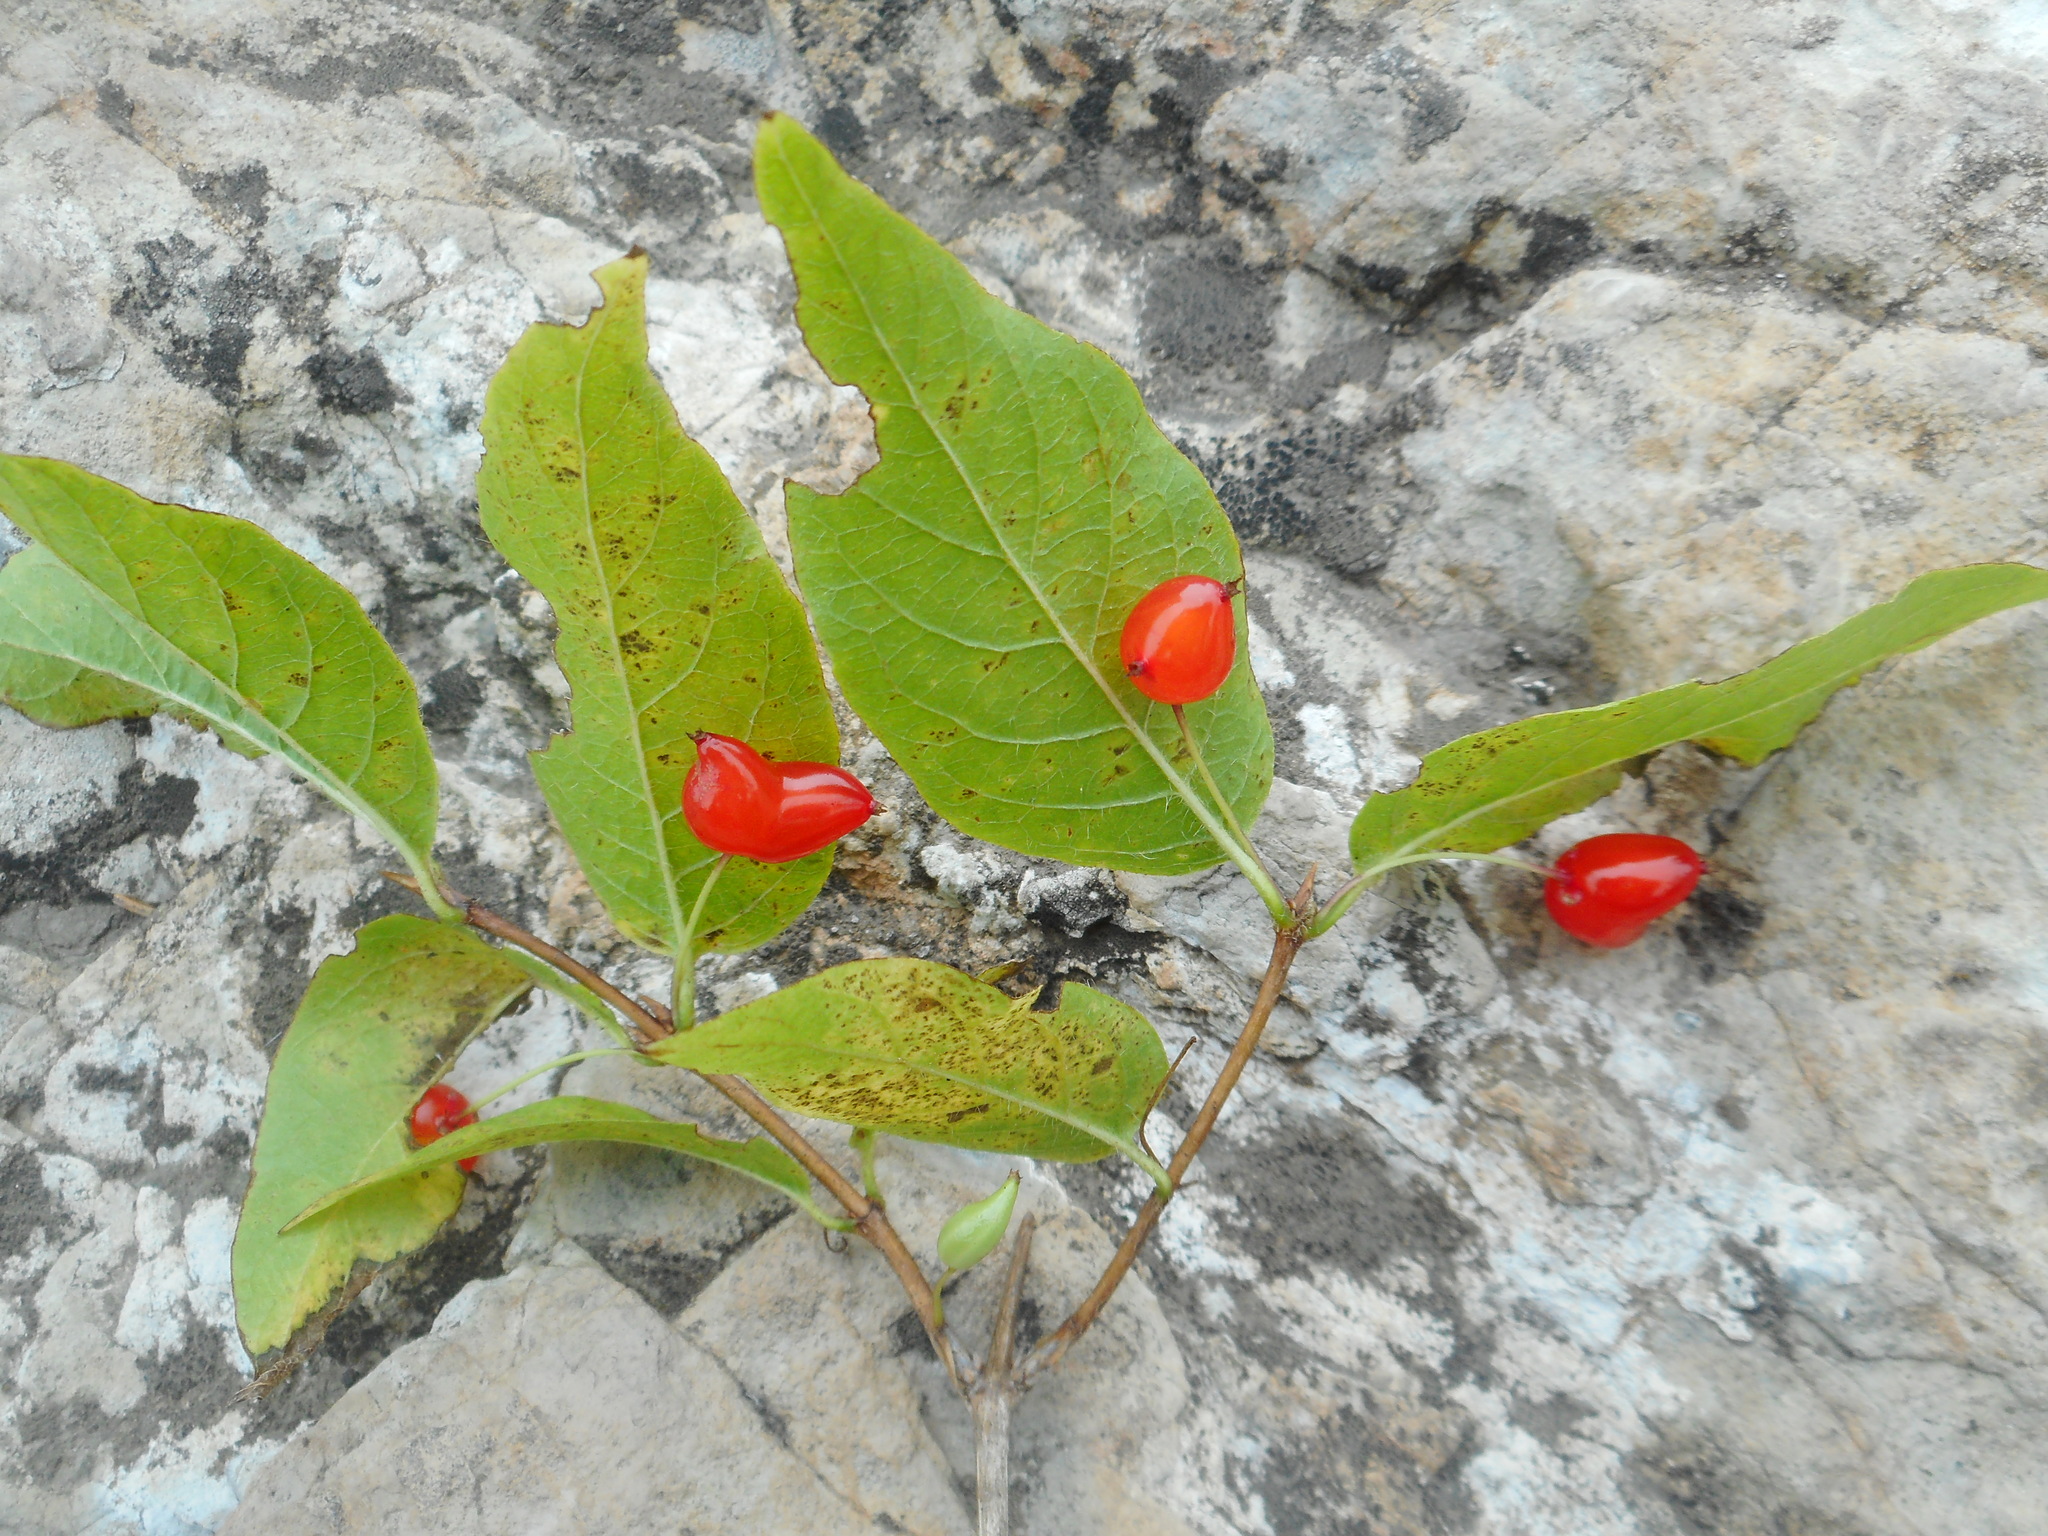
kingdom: Plantae
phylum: Tracheophyta
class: Magnoliopsida
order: Dipsacales
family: Caprifoliaceae
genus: Lonicera
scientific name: Lonicera maximowiczii
